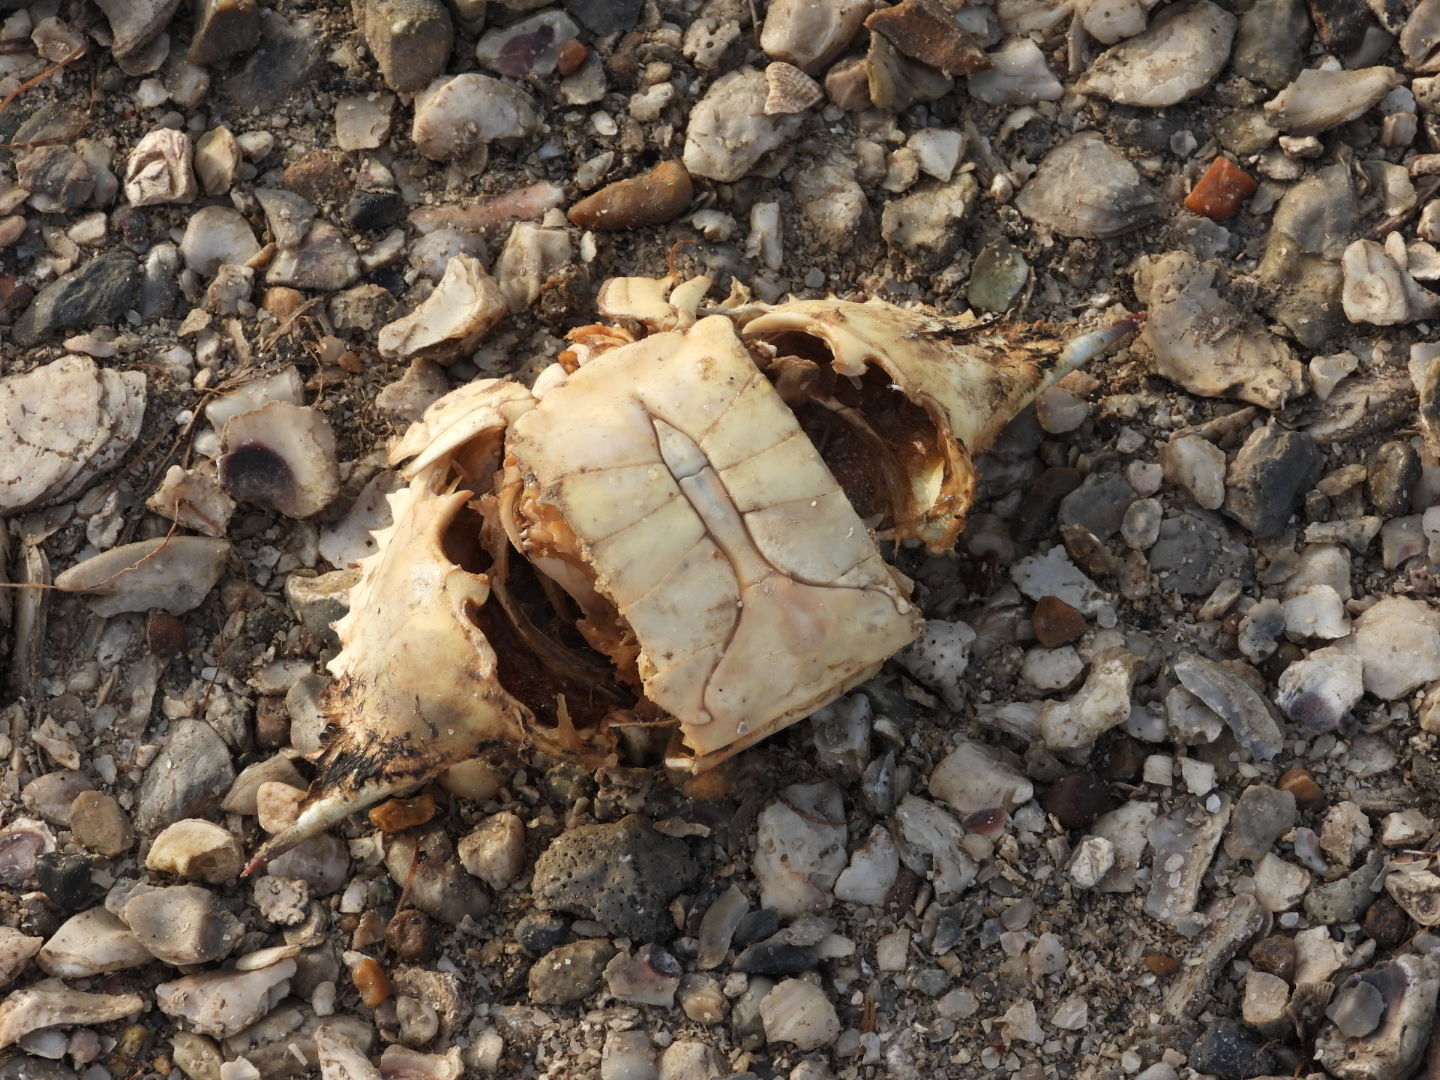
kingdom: Animalia
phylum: Arthropoda
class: Malacostraca
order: Decapoda
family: Portunidae
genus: Callinectes
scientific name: Callinectes sapidus
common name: Blue crab
